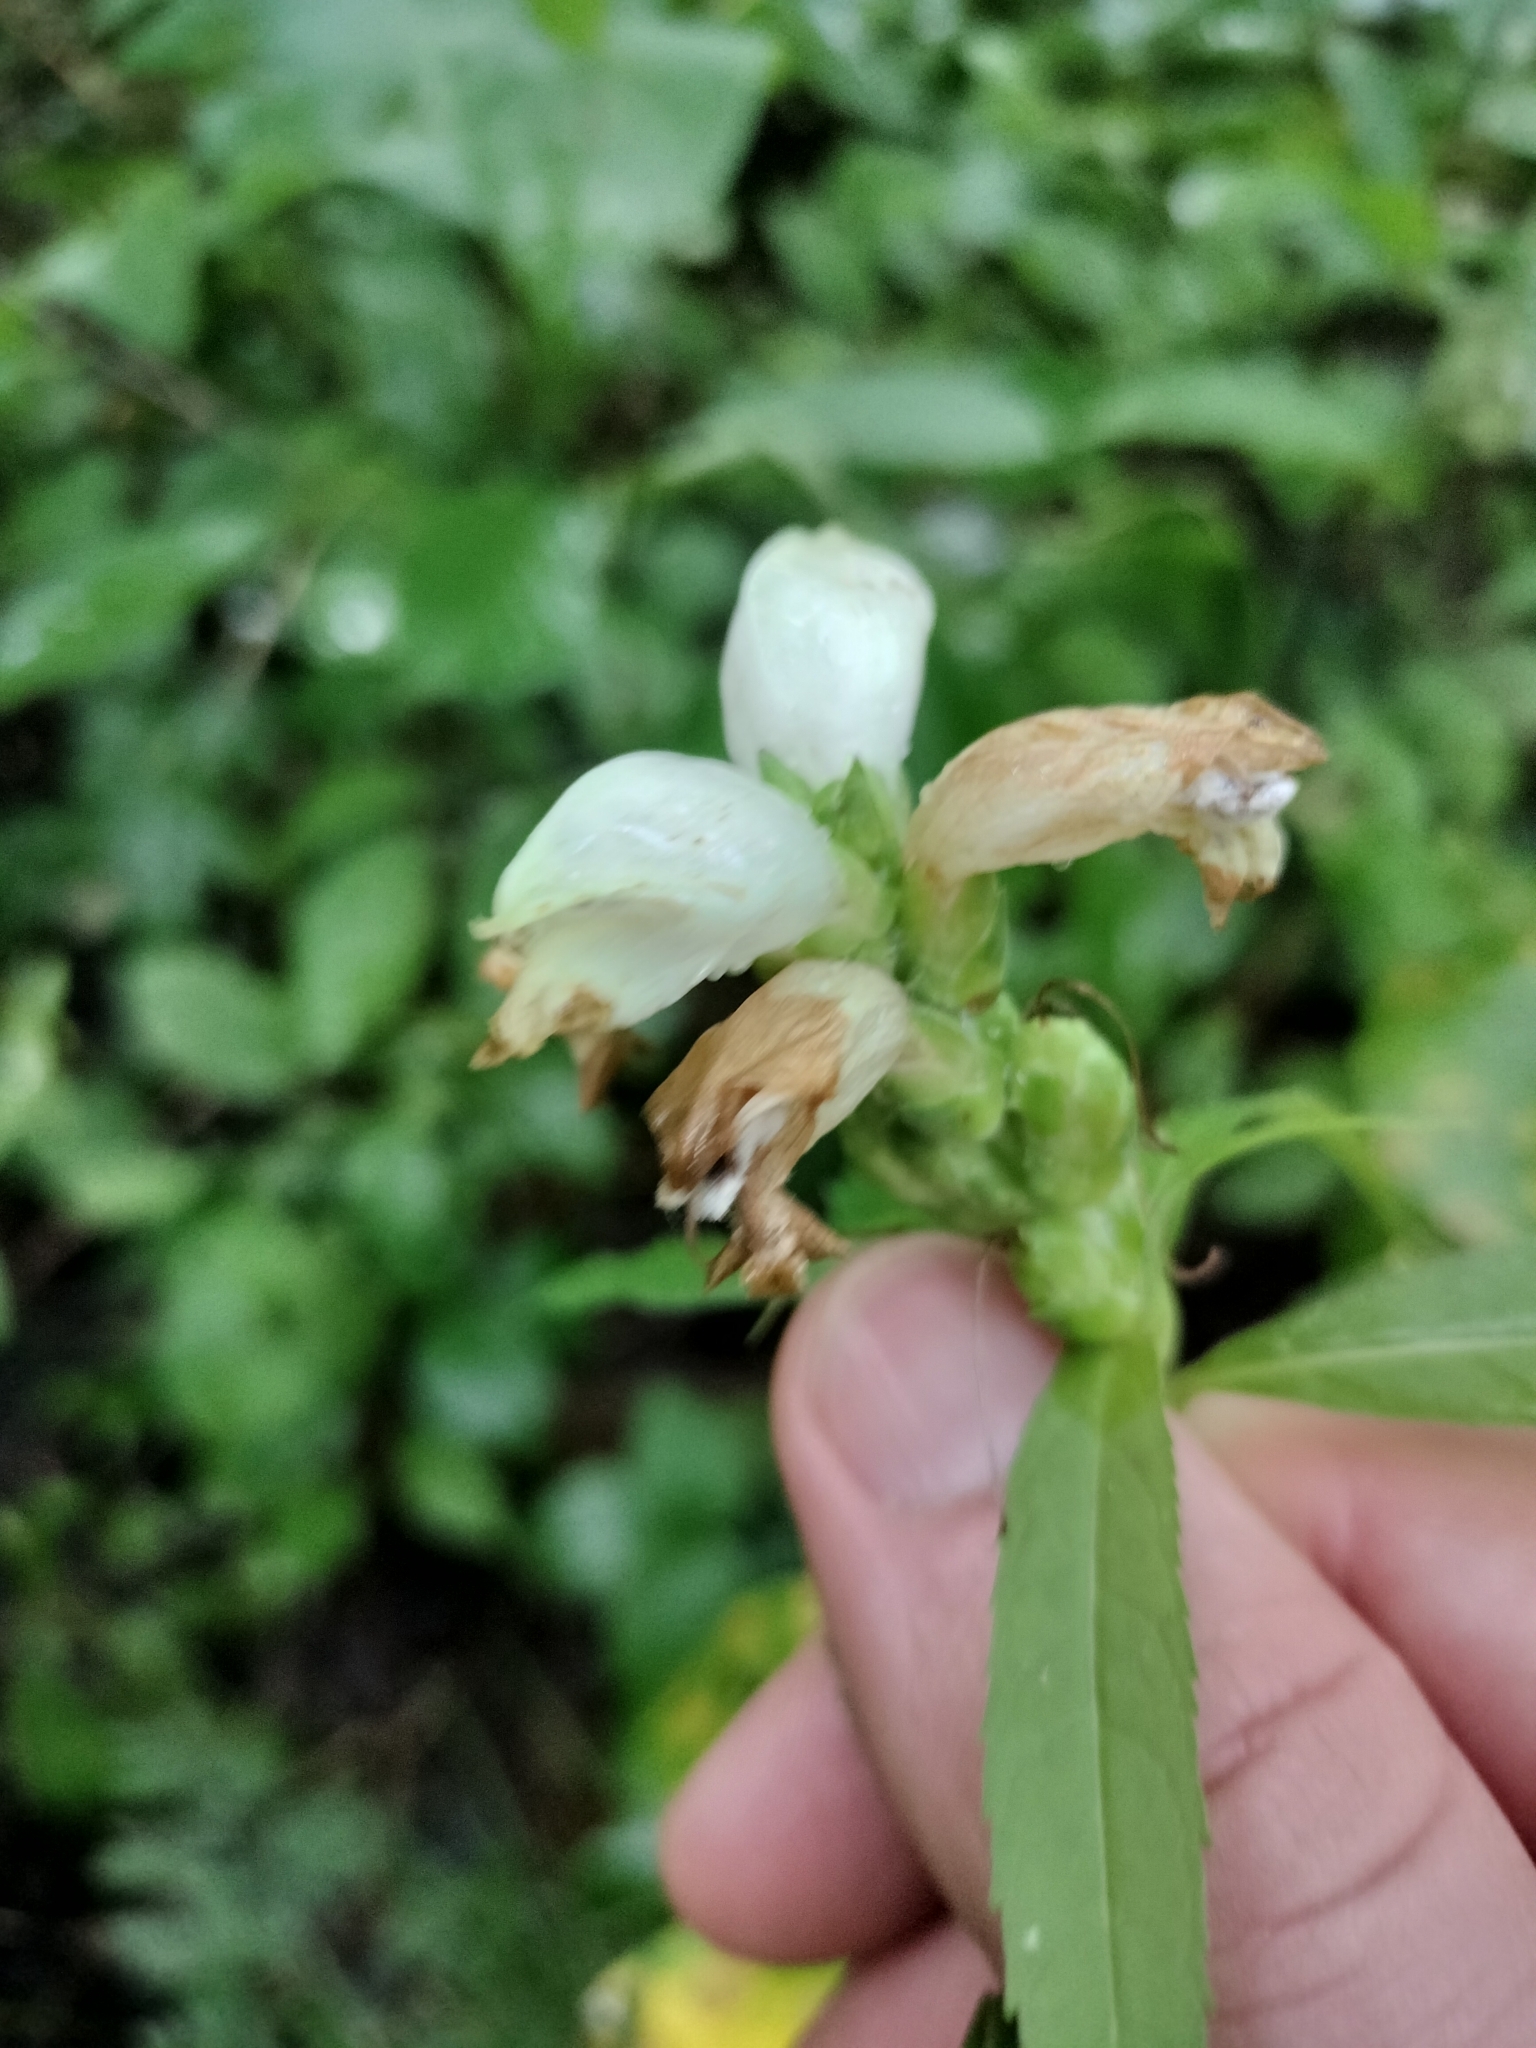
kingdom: Plantae
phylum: Tracheophyta
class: Magnoliopsida
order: Lamiales
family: Plantaginaceae
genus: Chelone
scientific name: Chelone glabra
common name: Snakehead
